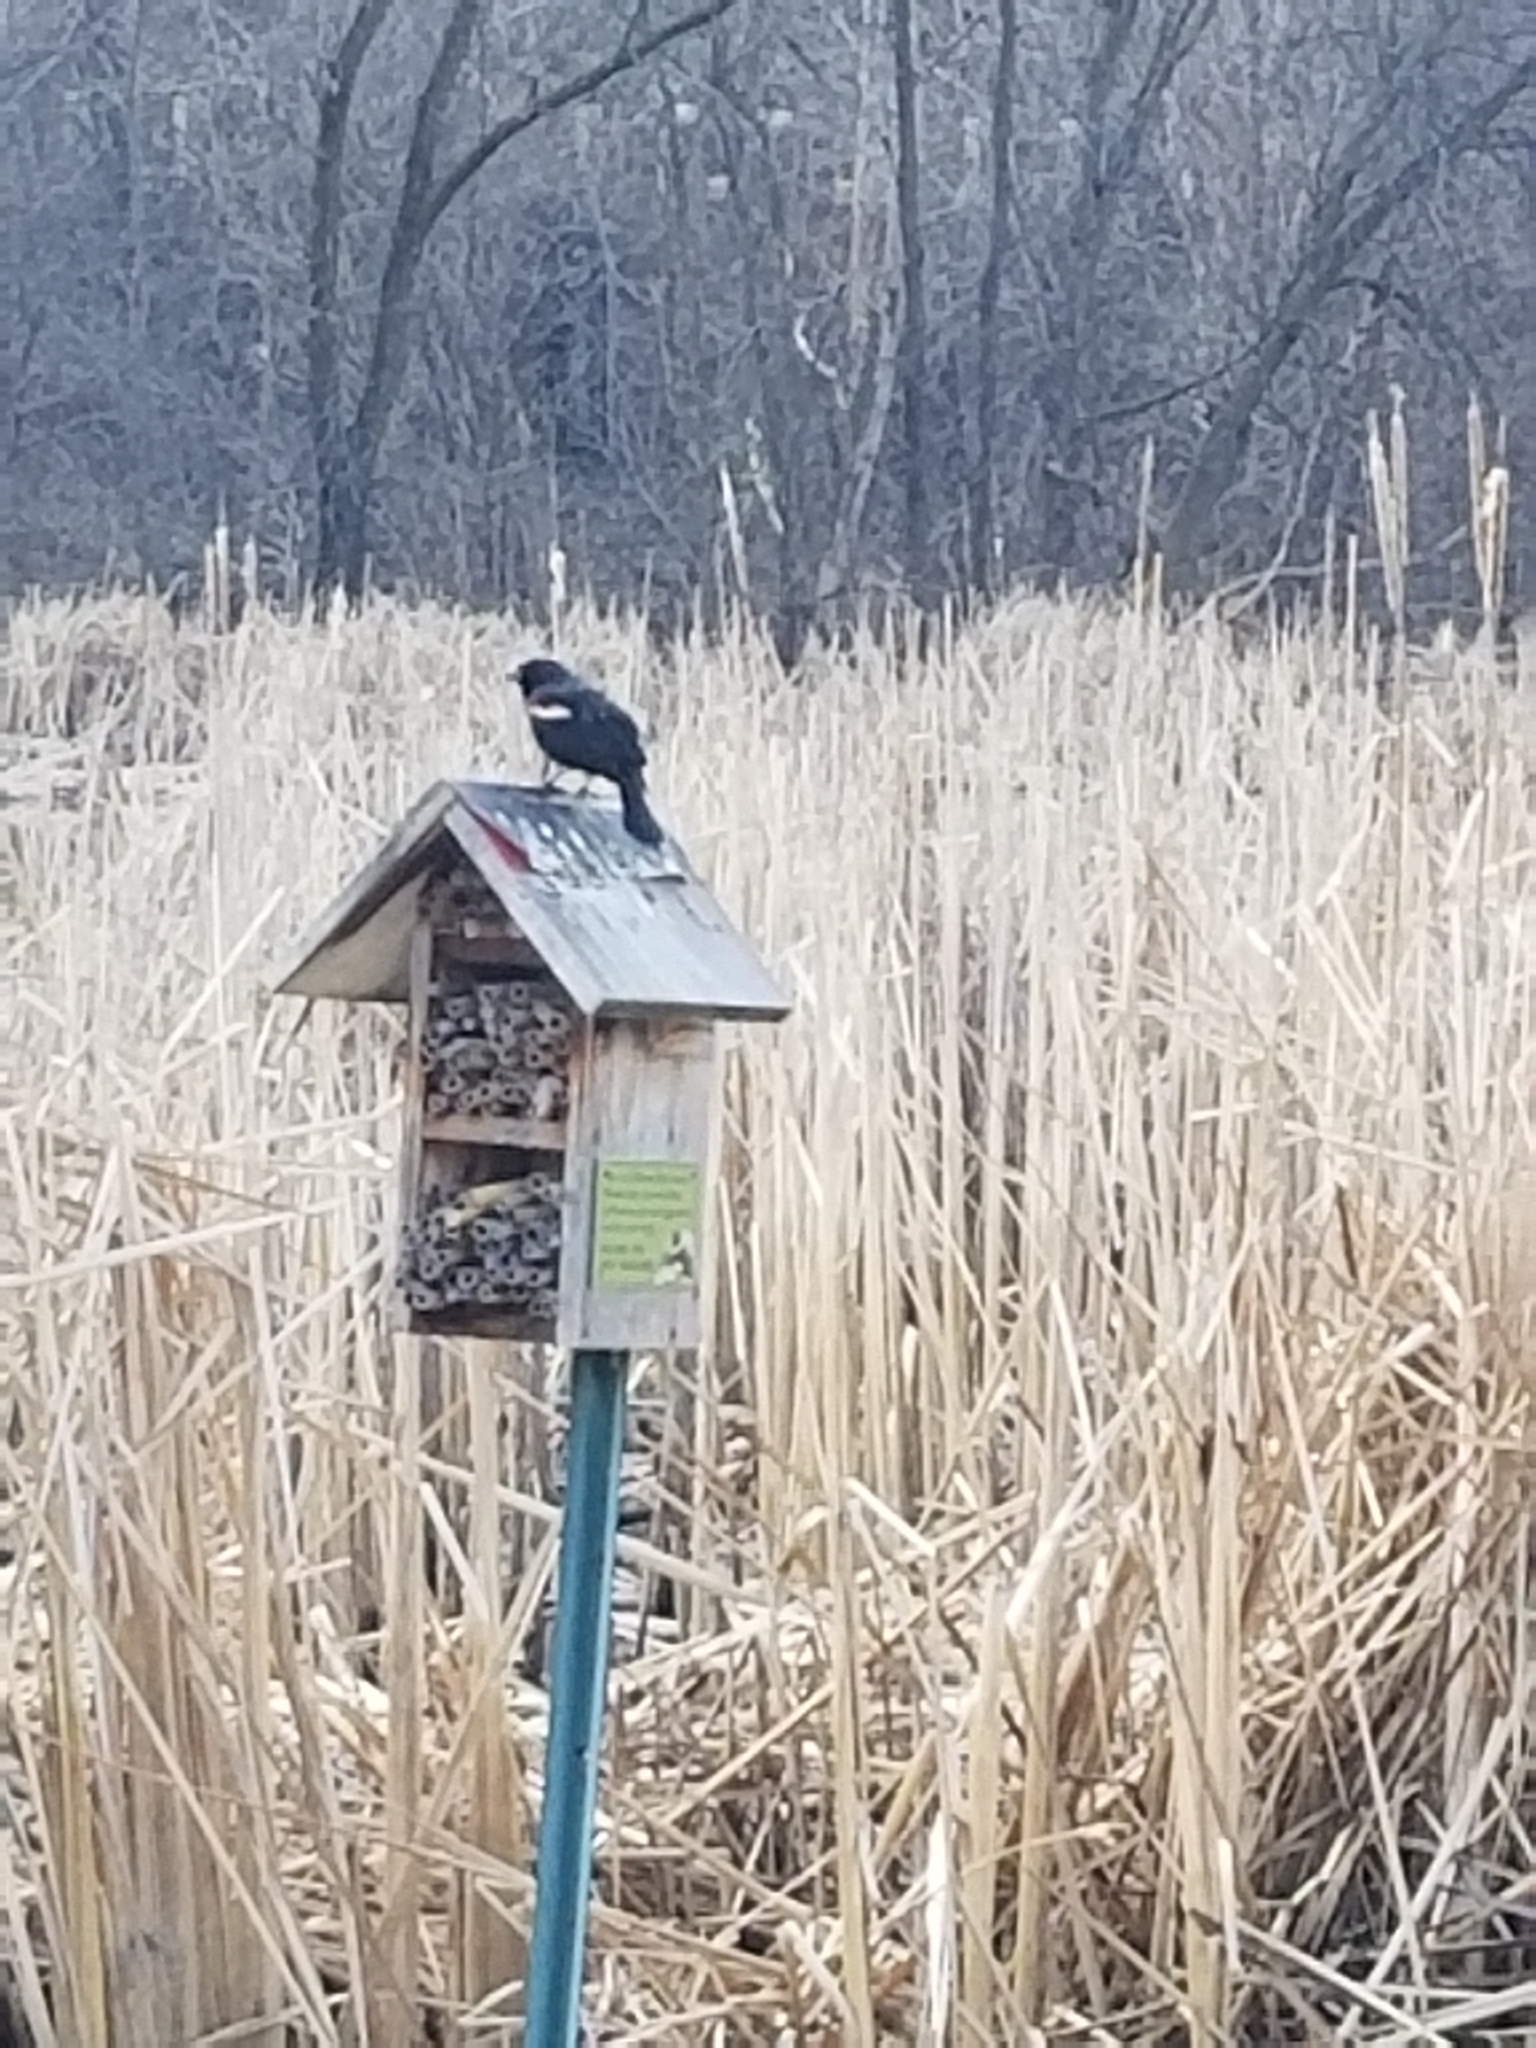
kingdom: Animalia
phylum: Chordata
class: Aves
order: Passeriformes
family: Icteridae
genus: Agelaius
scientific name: Agelaius phoeniceus
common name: Red-winged blackbird
